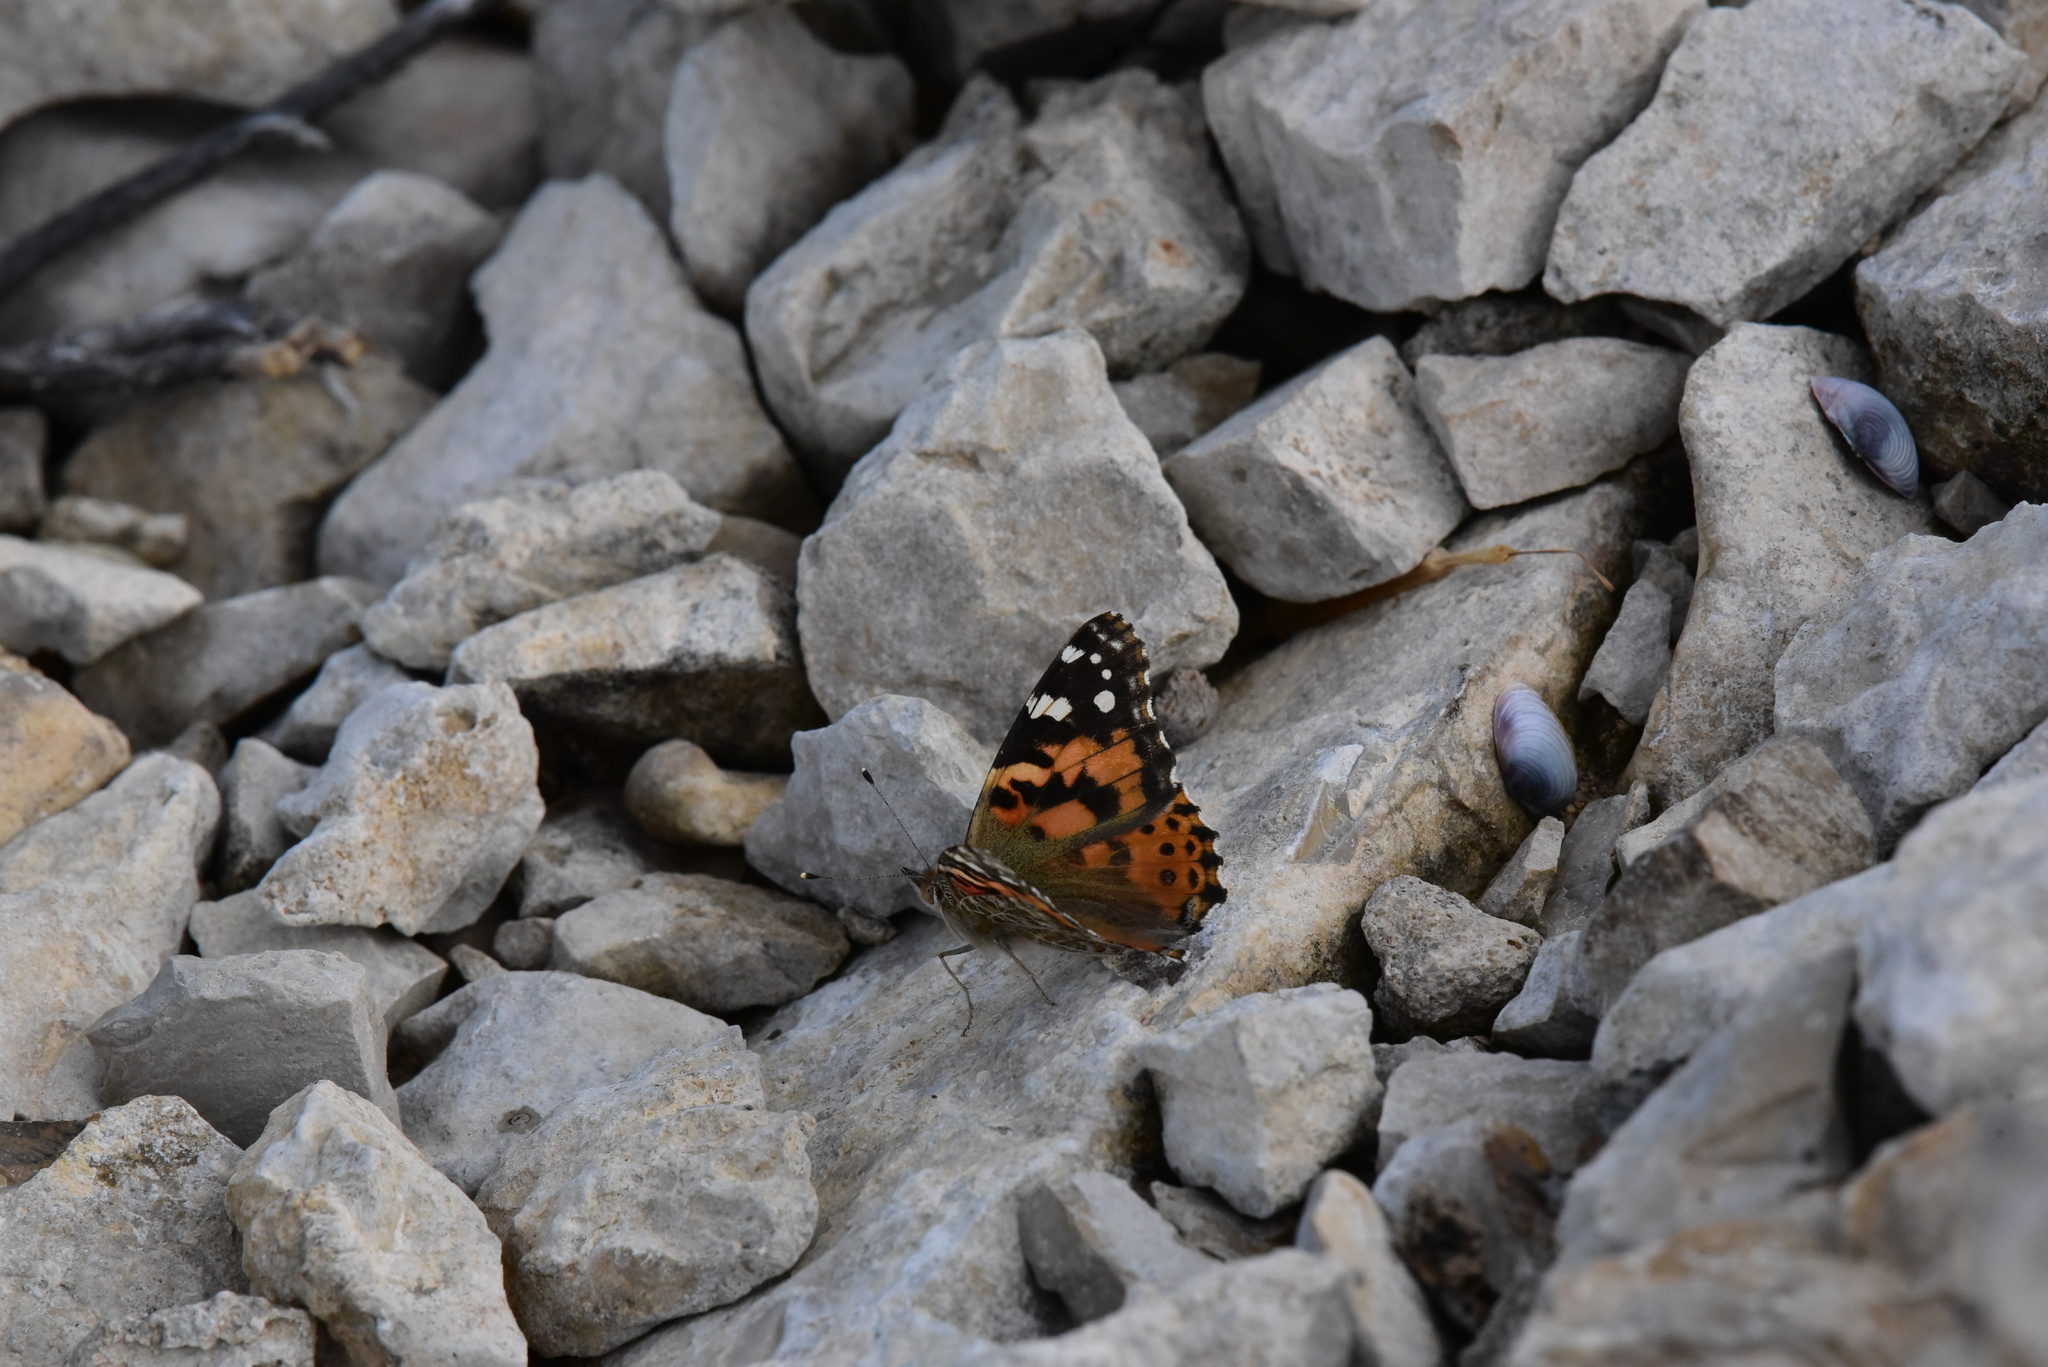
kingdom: Animalia
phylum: Arthropoda
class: Insecta
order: Lepidoptera
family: Nymphalidae
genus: Vanessa
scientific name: Vanessa cardui
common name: Painted lady
